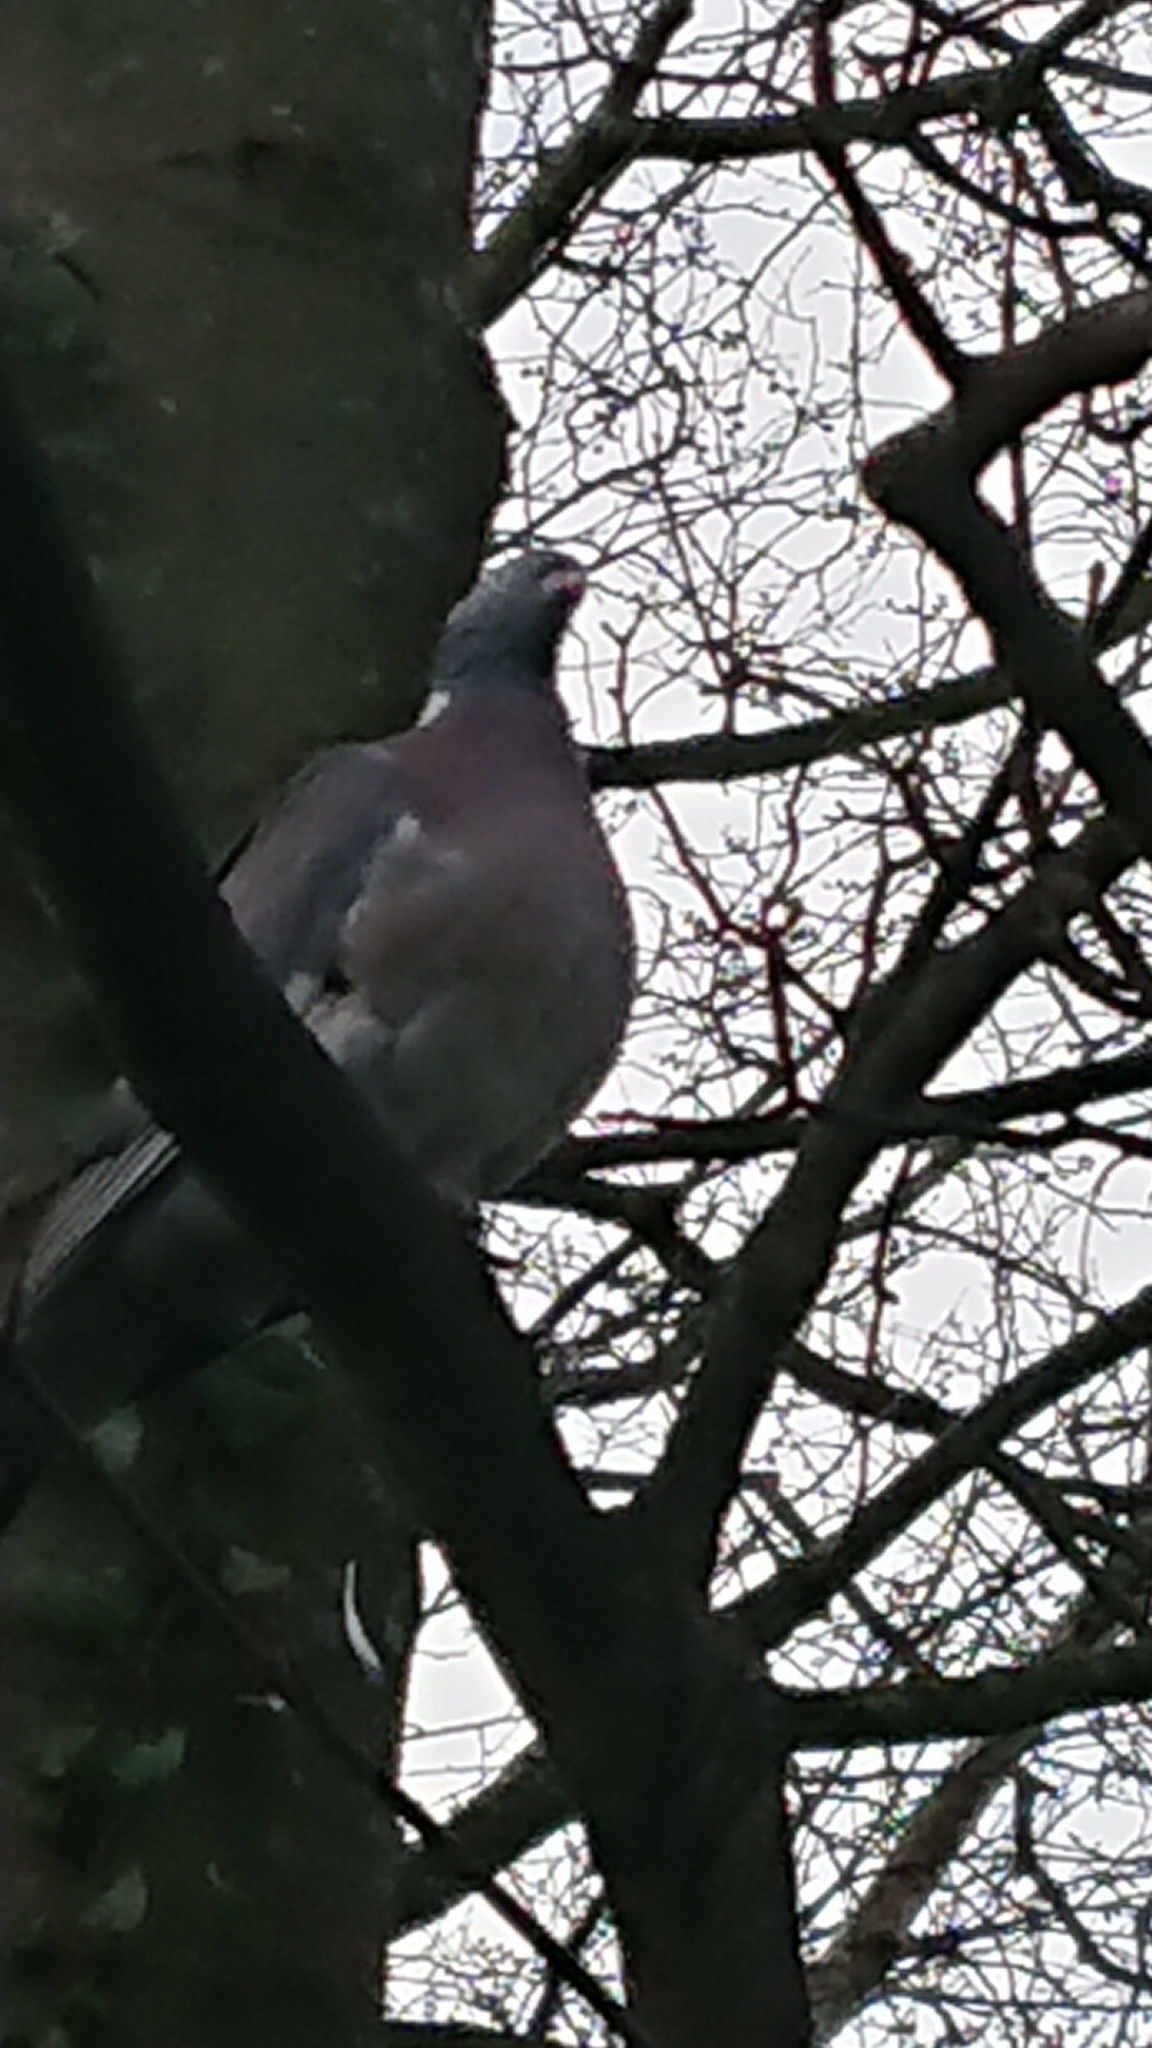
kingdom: Animalia
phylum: Chordata
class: Aves
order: Columbiformes
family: Columbidae
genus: Columba
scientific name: Columba palumbus
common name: Common wood pigeon
